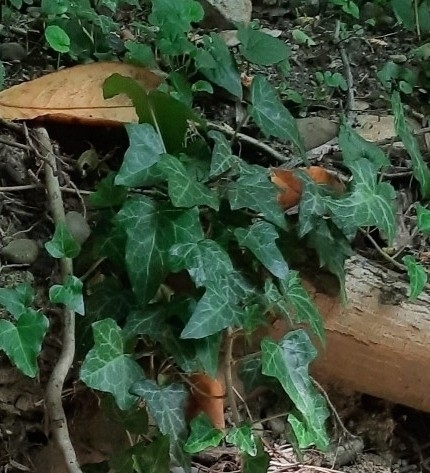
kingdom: Plantae
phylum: Tracheophyta
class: Magnoliopsida
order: Apiales
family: Araliaceae
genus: Hedera
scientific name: Hedera helix
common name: Ivy
